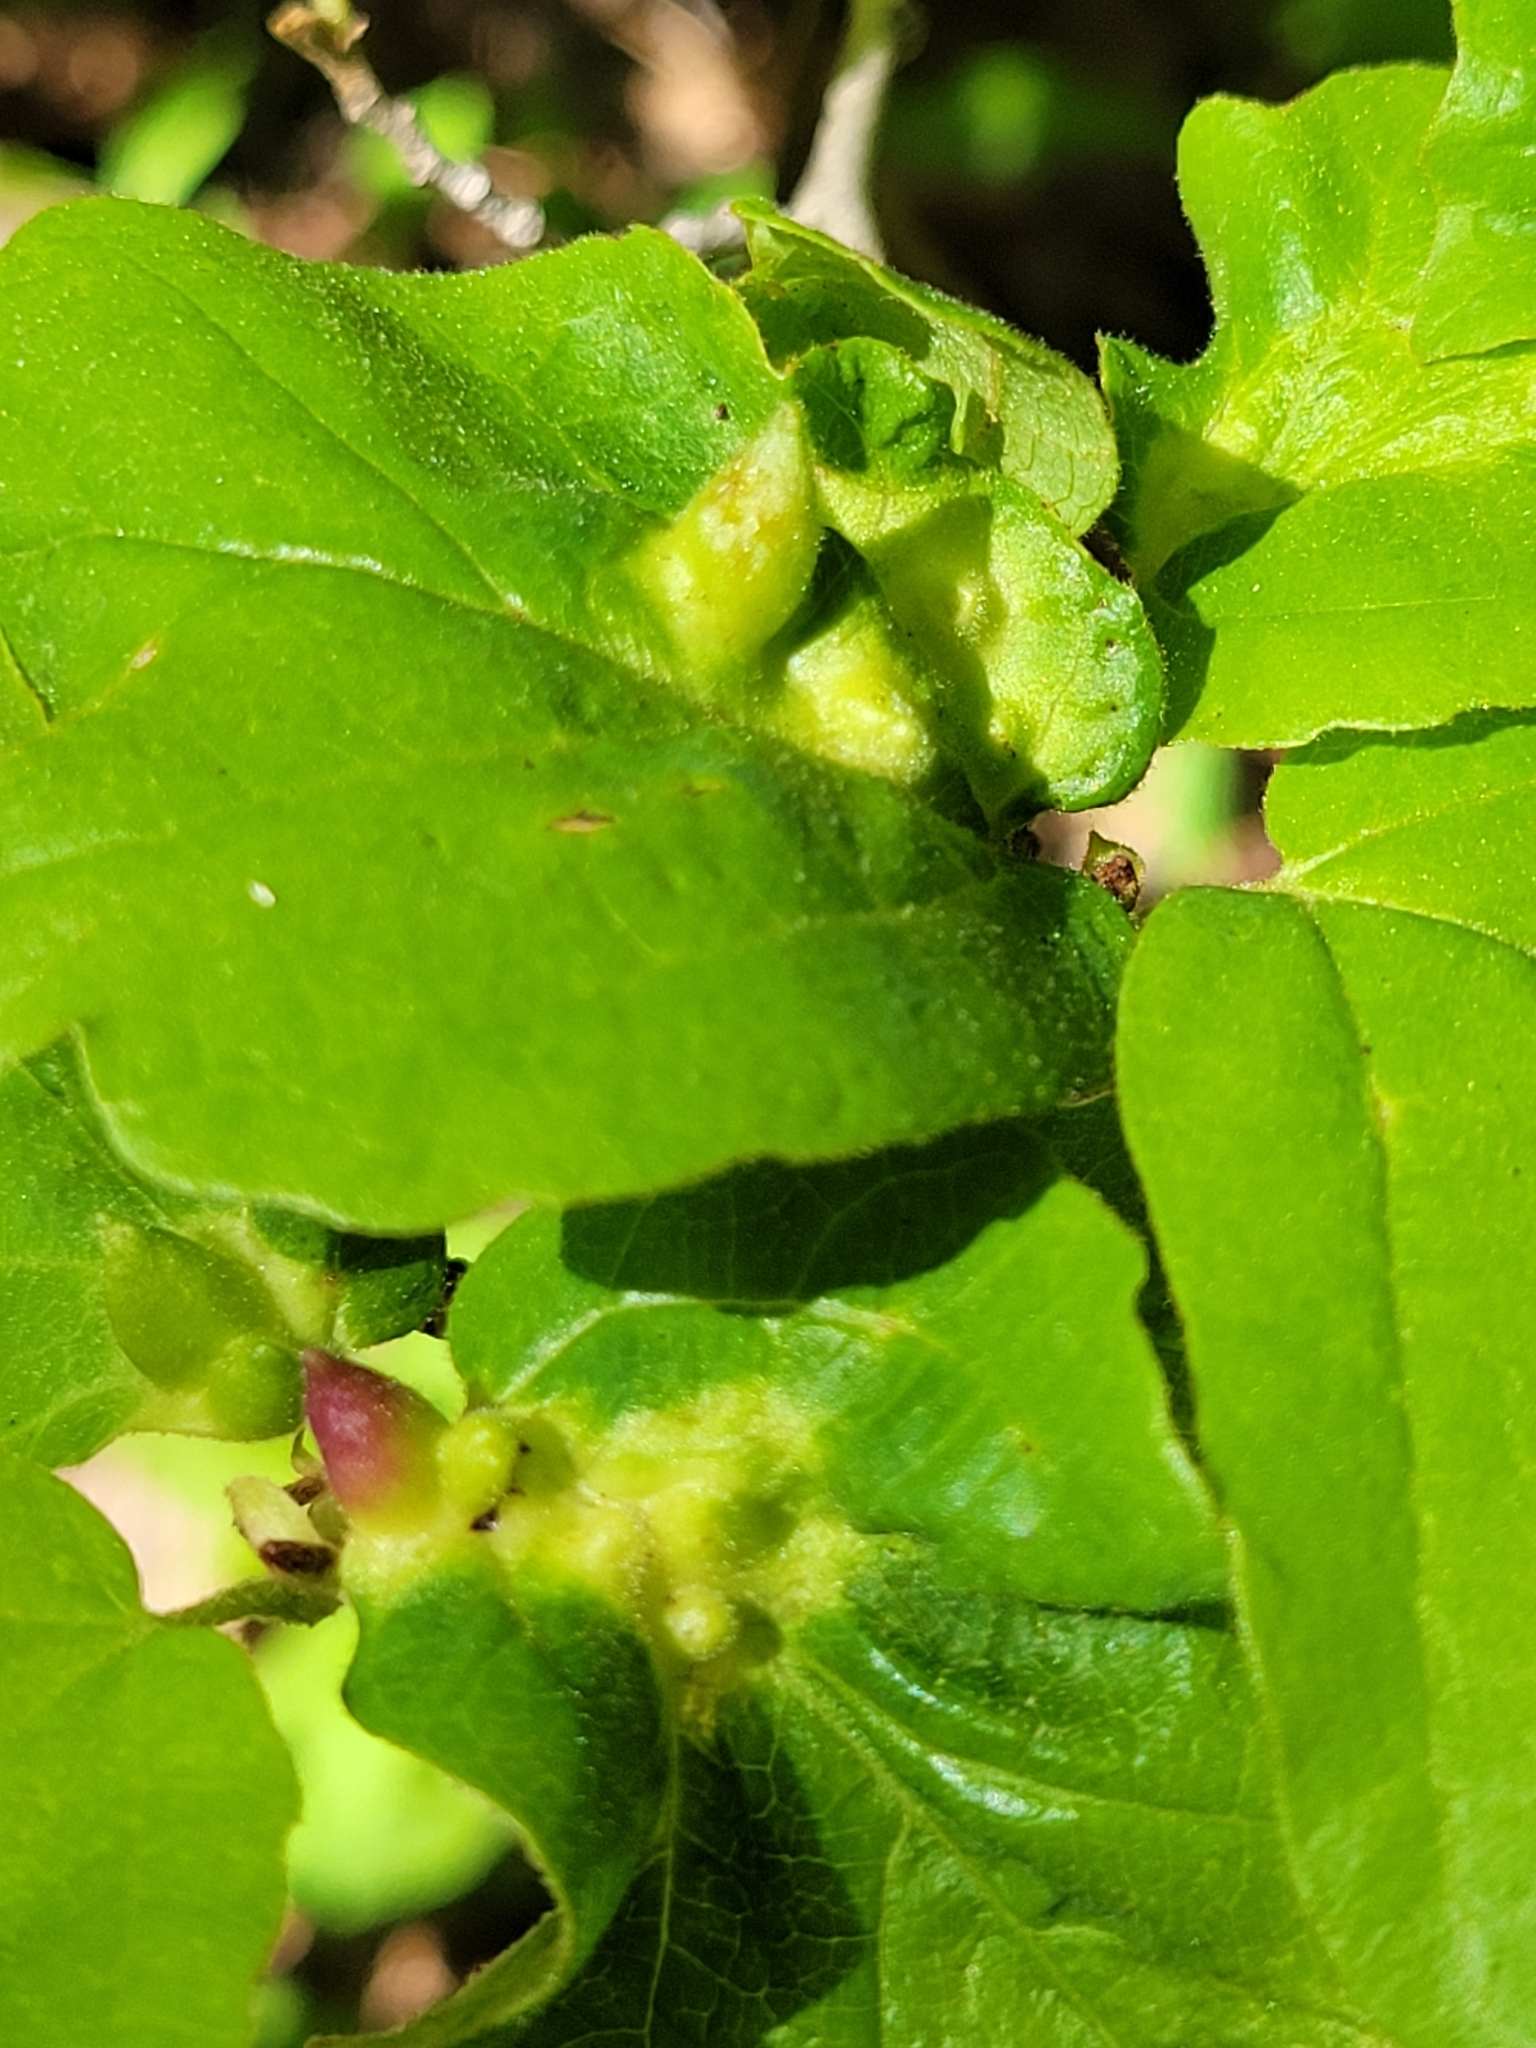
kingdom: Animalia
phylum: Arthropoda
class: Insecta
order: Hemiptera
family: Aphididae
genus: Hormaphis
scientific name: Hormaphis hamamelidis
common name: Witch-hazel cone gall aphid
